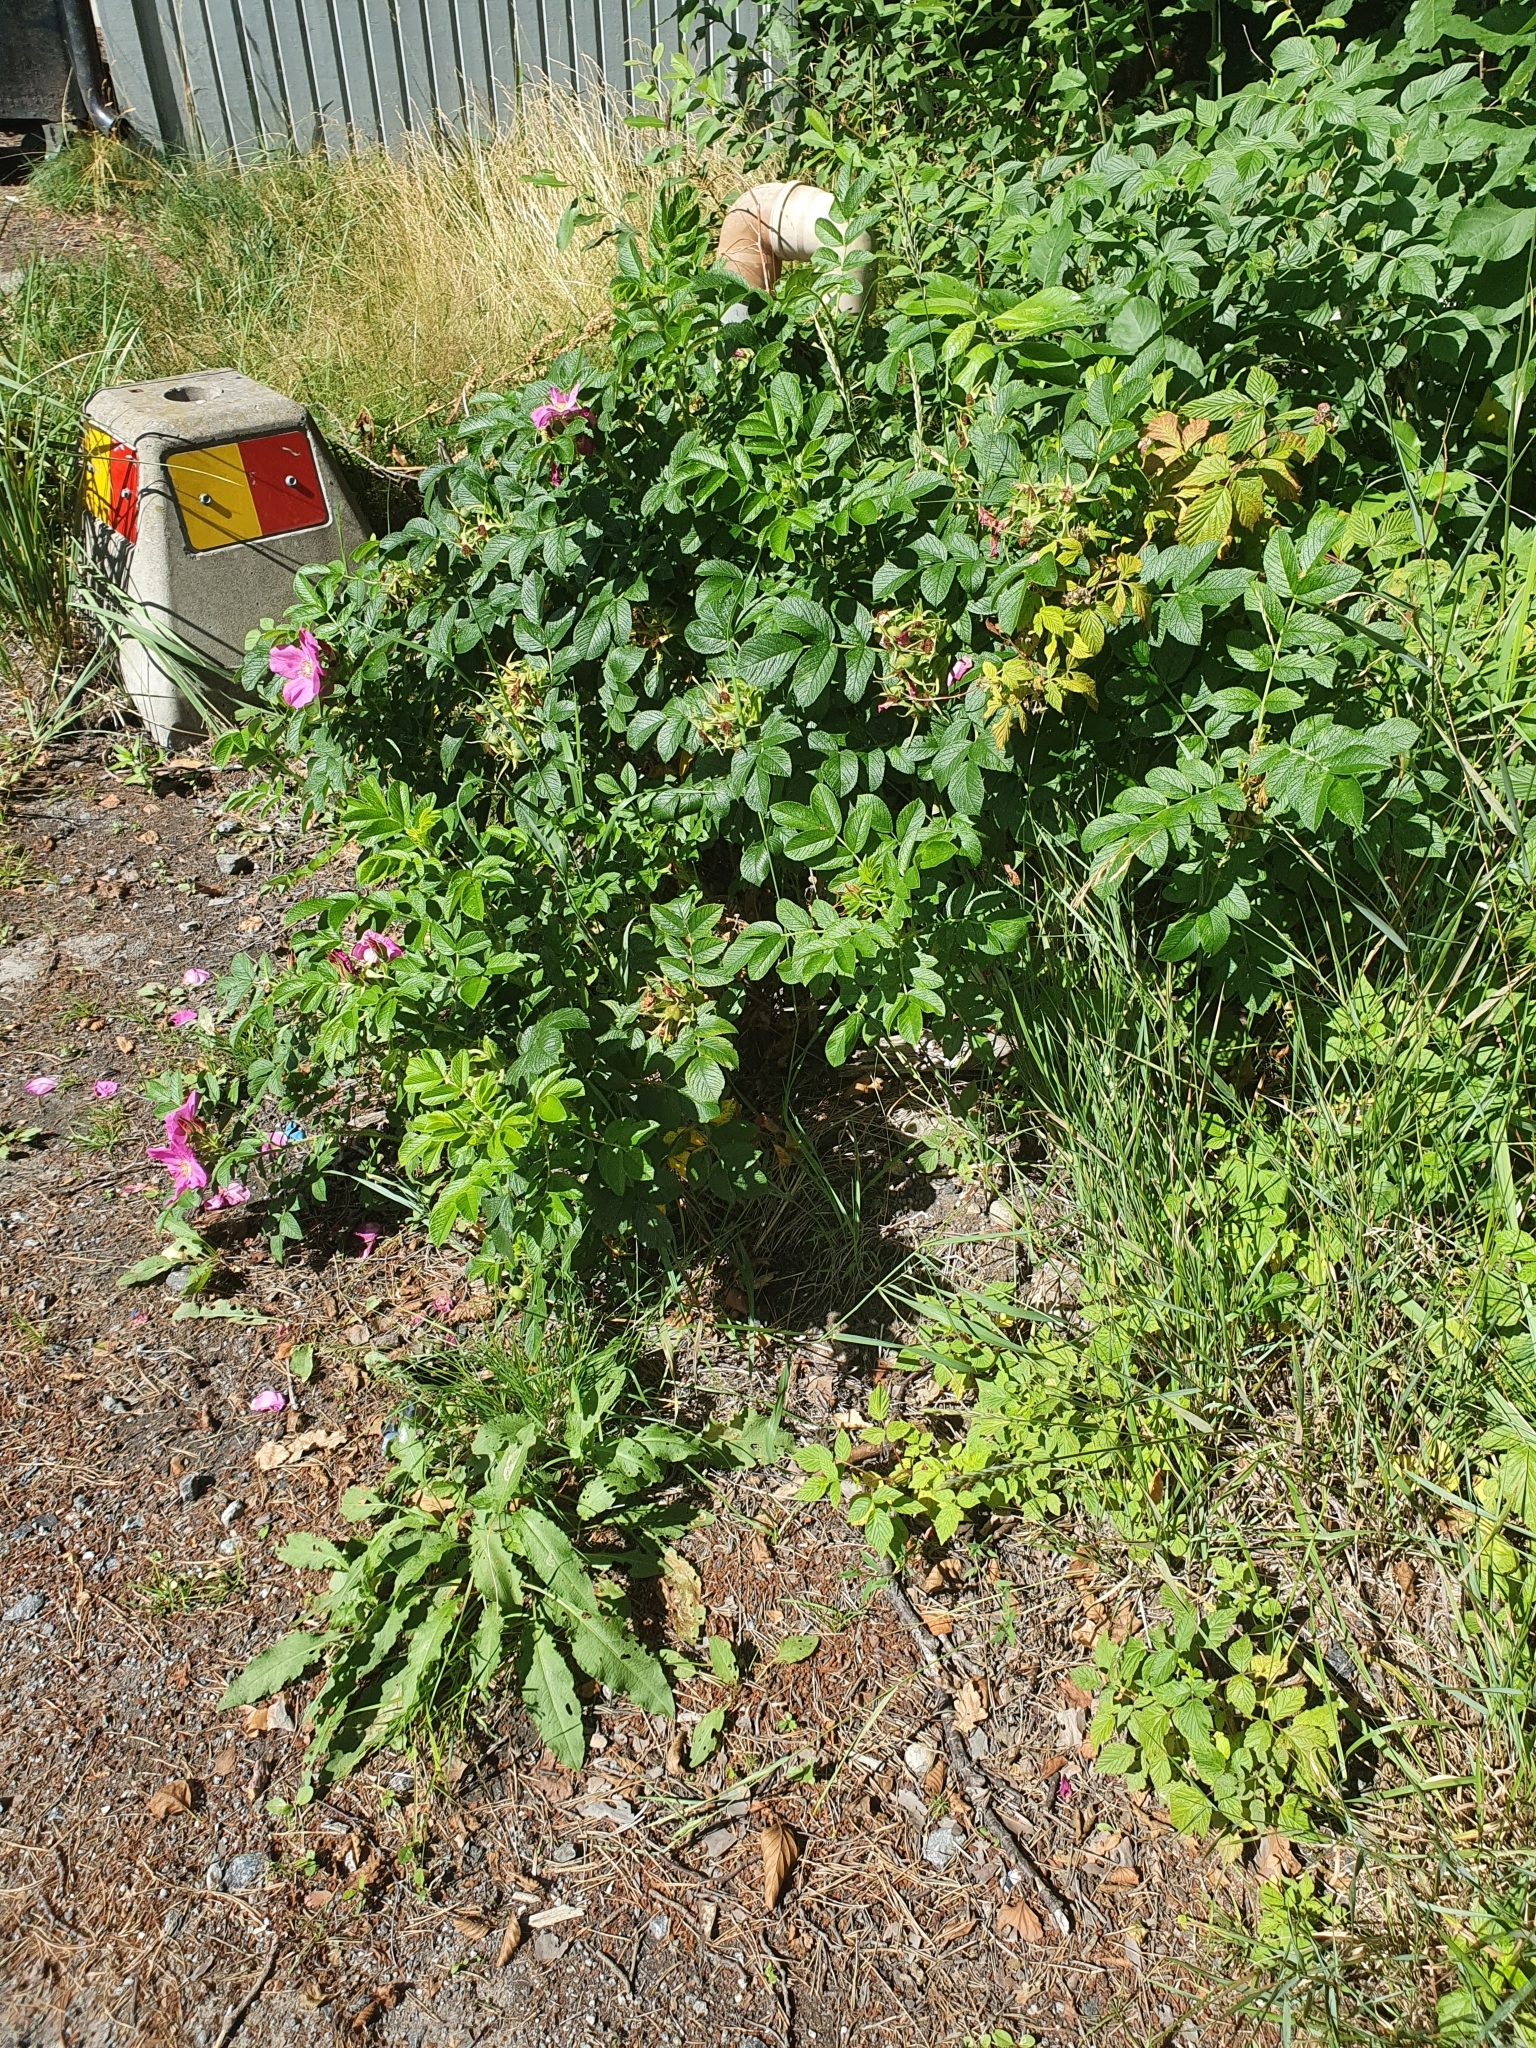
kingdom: Plantae
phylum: Tracheophyta
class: Magnoliopsida
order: Rosales
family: Rosaceae
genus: Rosa
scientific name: Rosa rugosa
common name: Japanese rose
